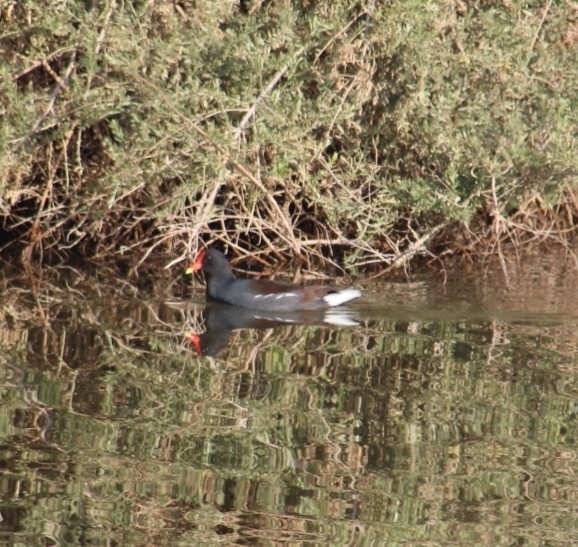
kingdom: Animalia
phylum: Chordata
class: Aves
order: Gruiformes
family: Rallidae
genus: Gallinula
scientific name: Gallinula chloropus
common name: Common moorhen
